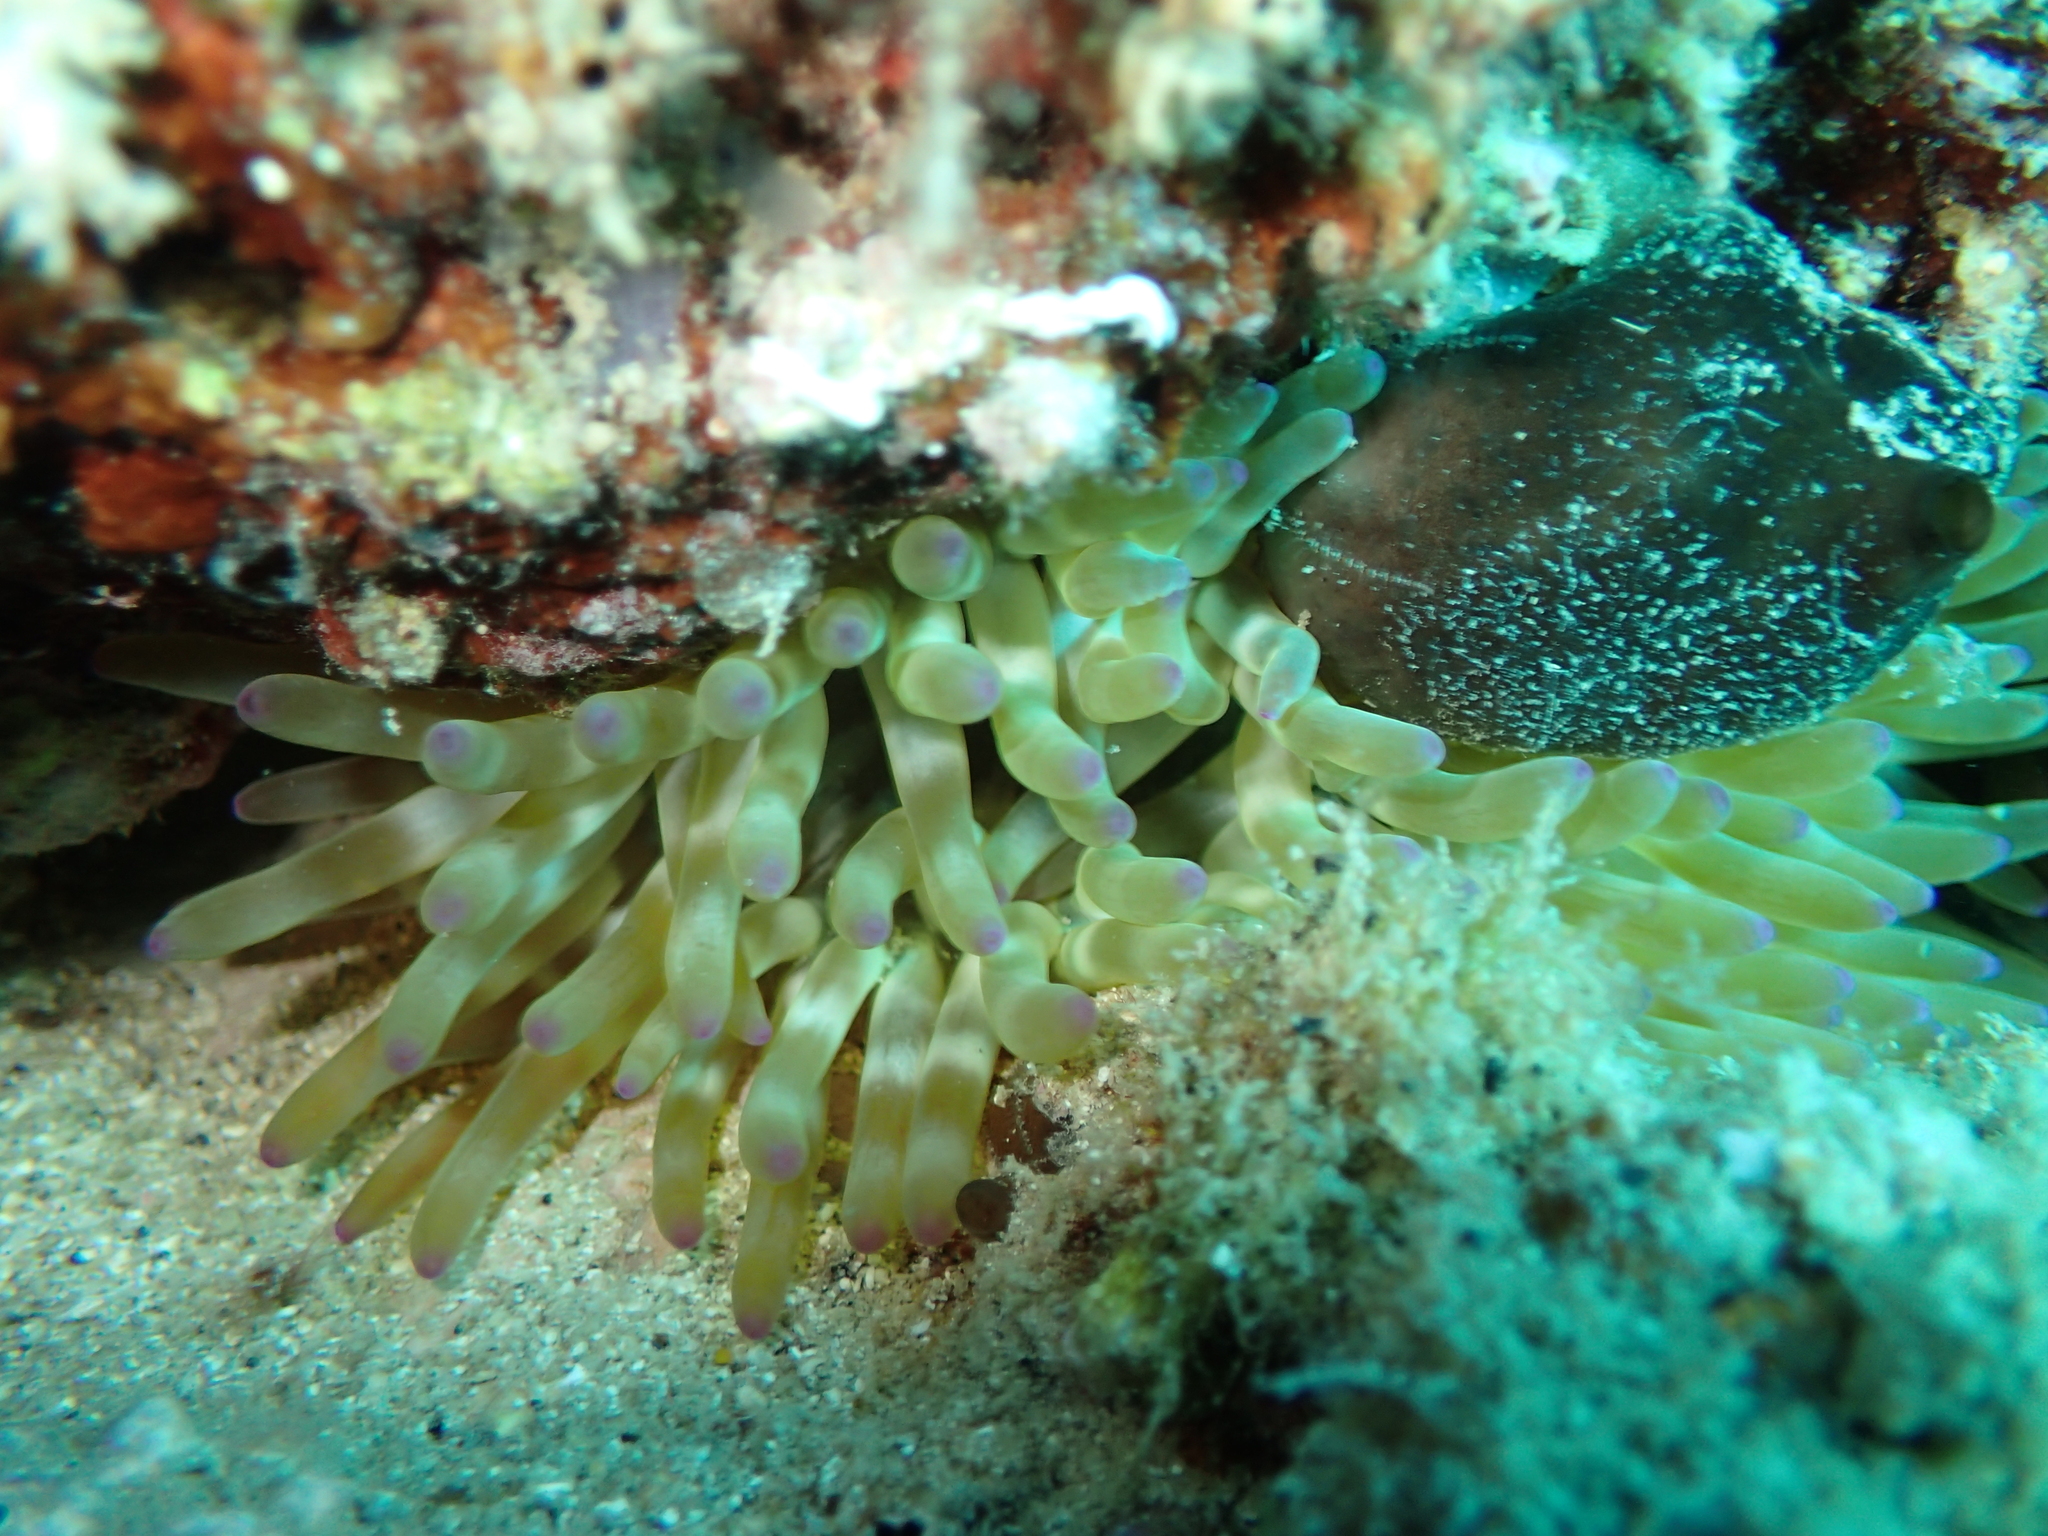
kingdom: Animalia
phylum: Cnidaria
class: Anthozoa
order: Actiniaria
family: Actiniidae
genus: Cribrinopsis
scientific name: Cribrinopsis crassa
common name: Fat anemone
